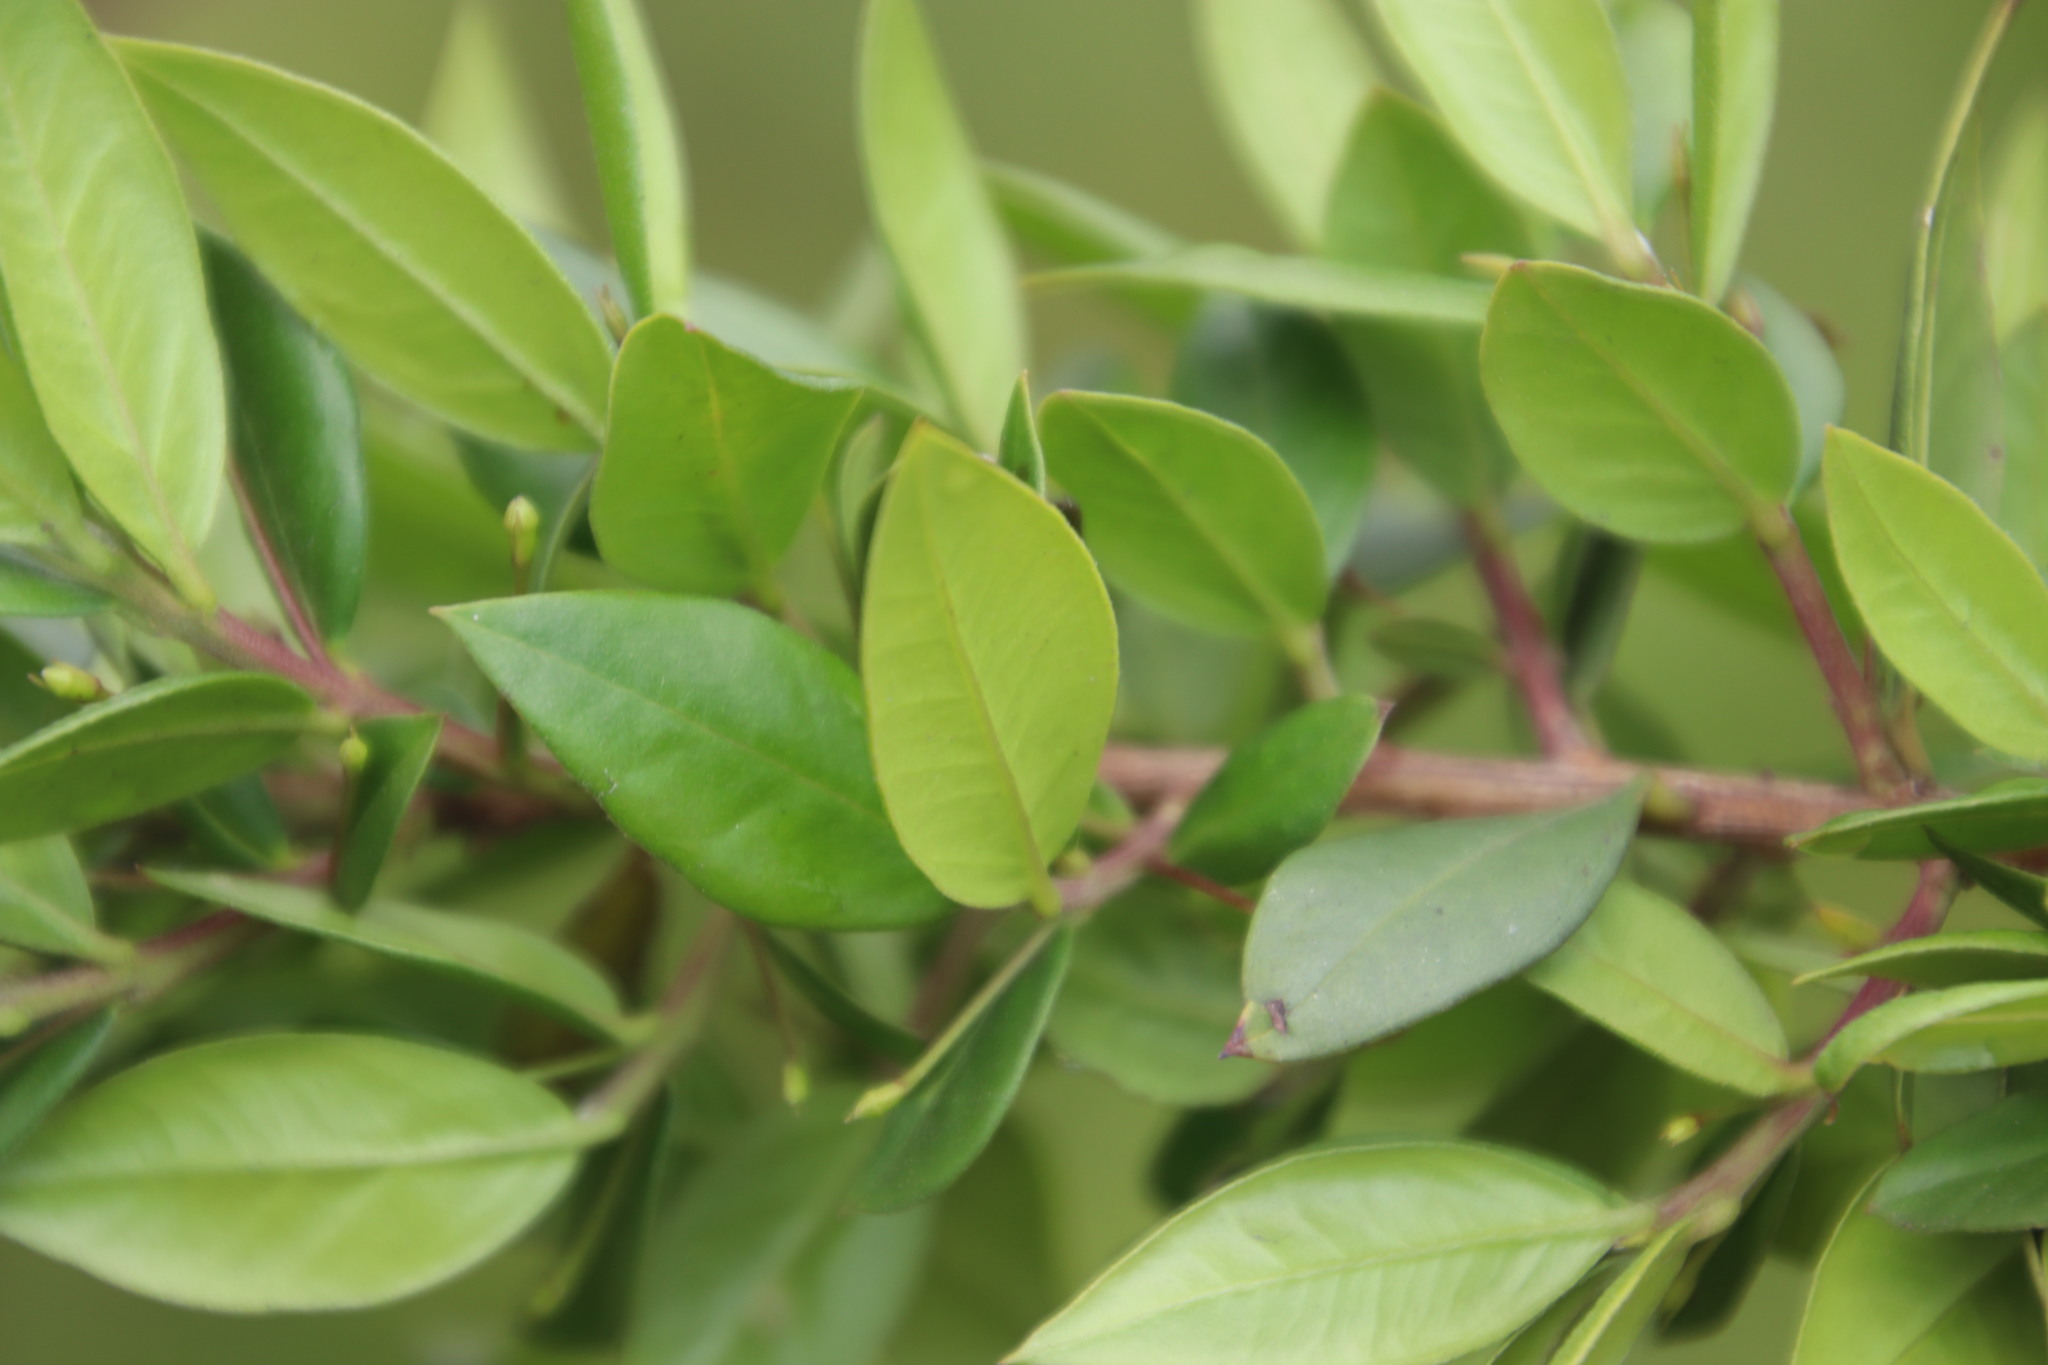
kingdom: Plantae
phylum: Tracheophyta
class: Magnoliopsida
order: Myrtales
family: Myrtaceae
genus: Myrtus
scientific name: Myrtus communis
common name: Myrtle
